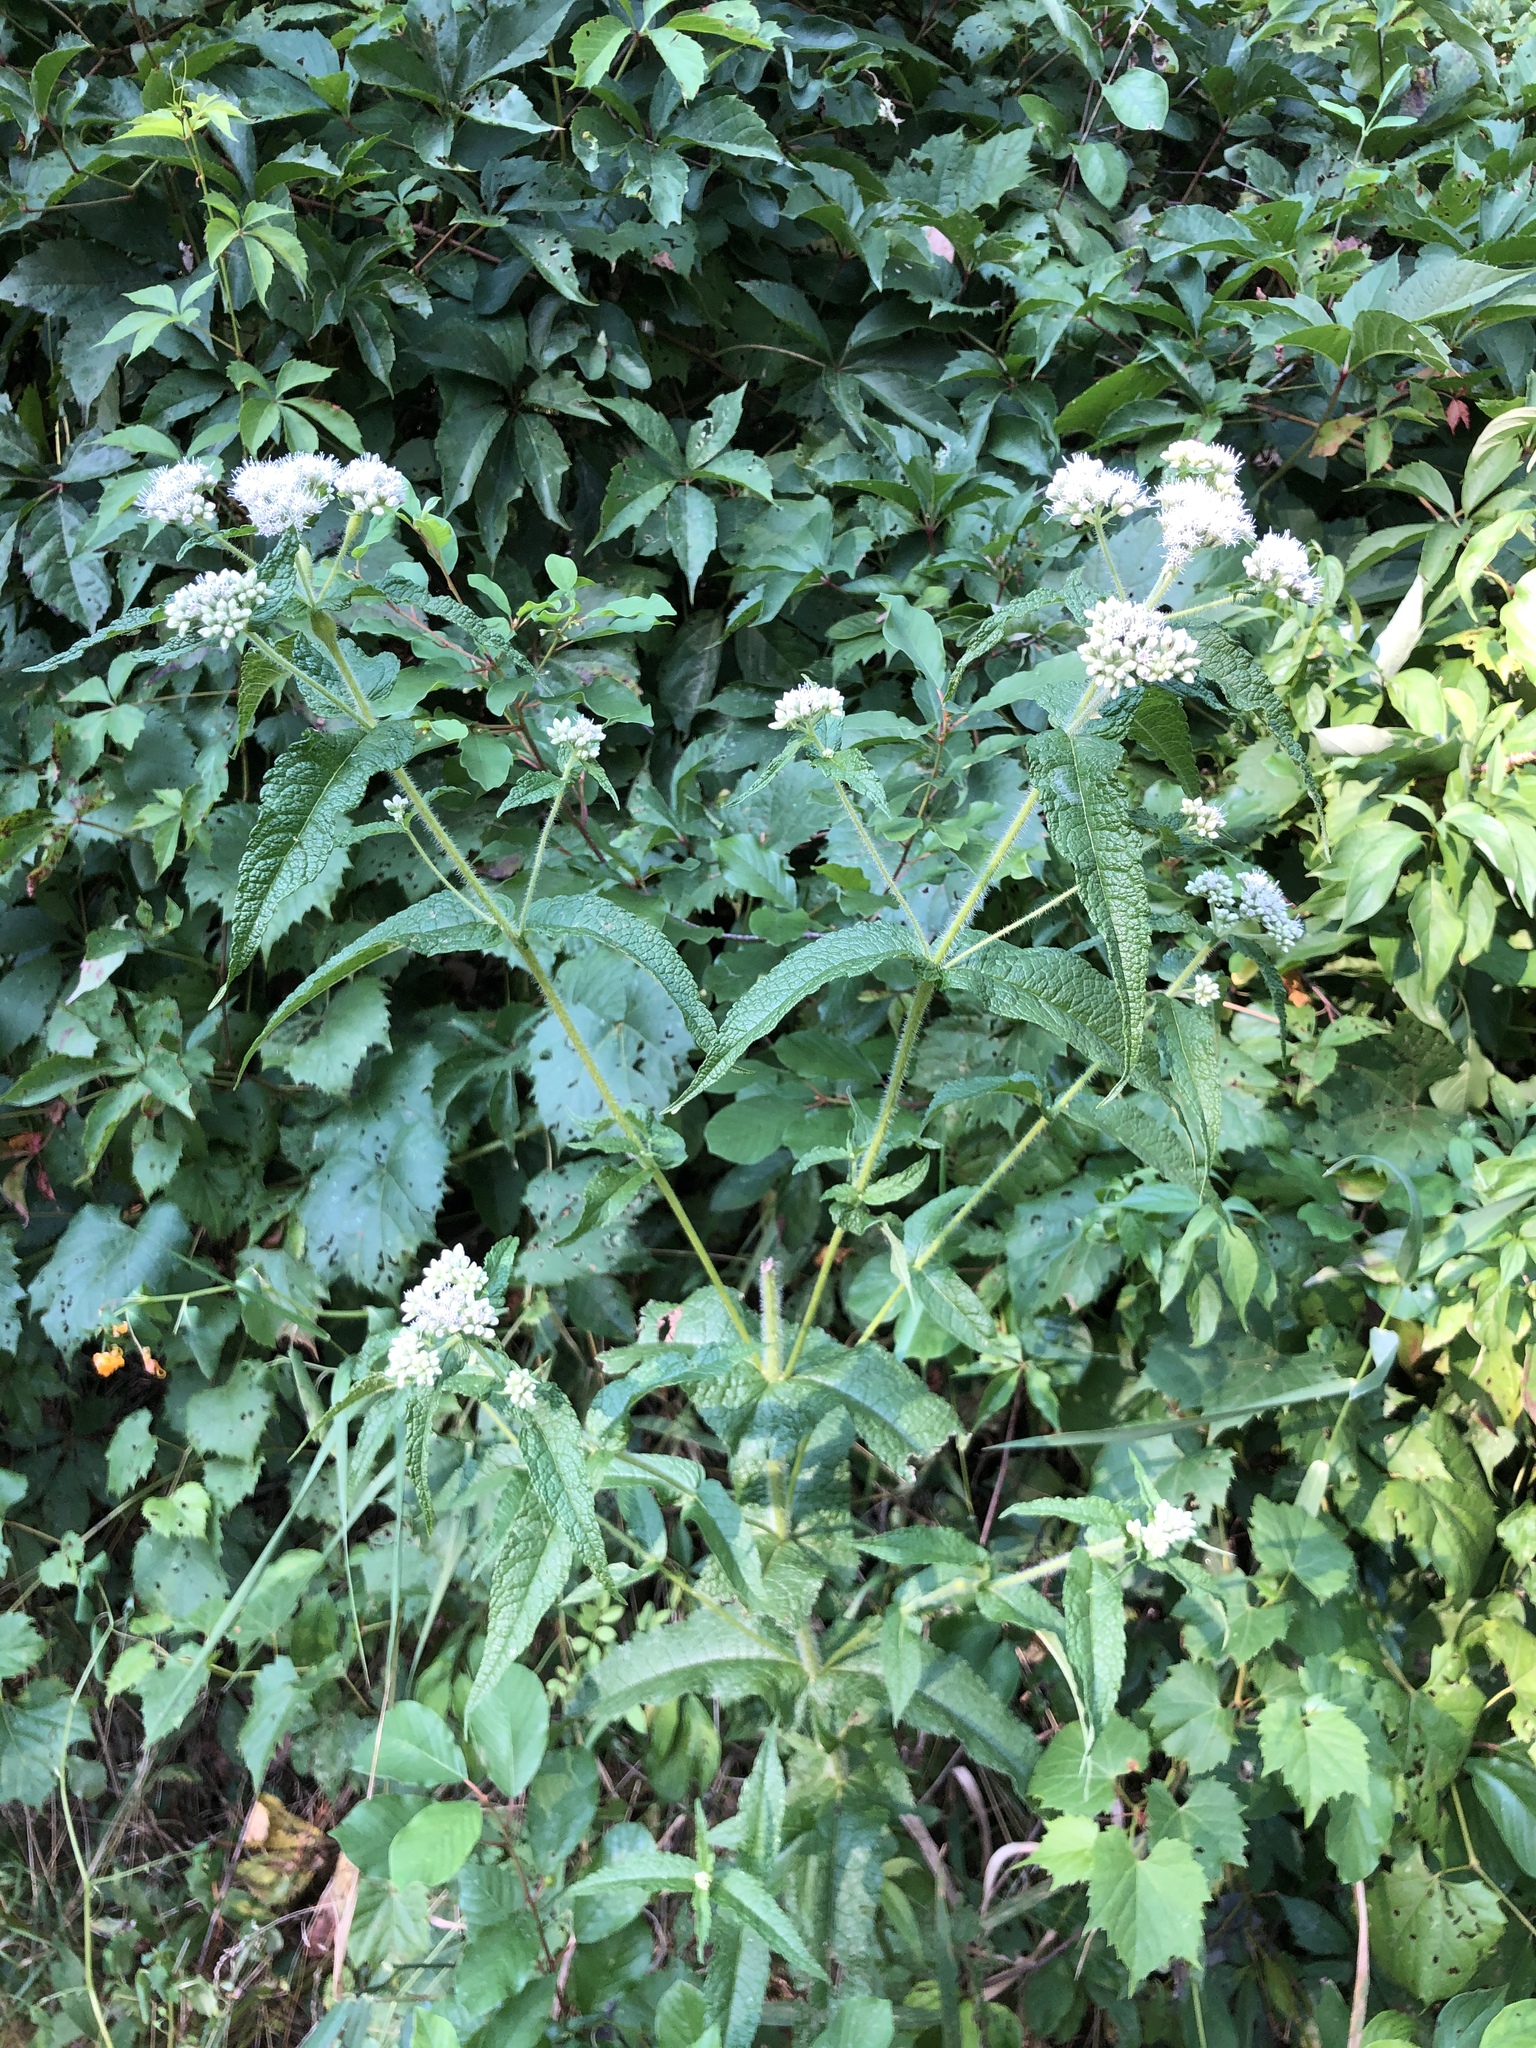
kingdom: Plantae
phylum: Tracheophyta
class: Magnoliopsida
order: Asterales
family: Asteraceae
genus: Eupatorium
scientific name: Eupatorium perfoliatum
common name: Boneset
